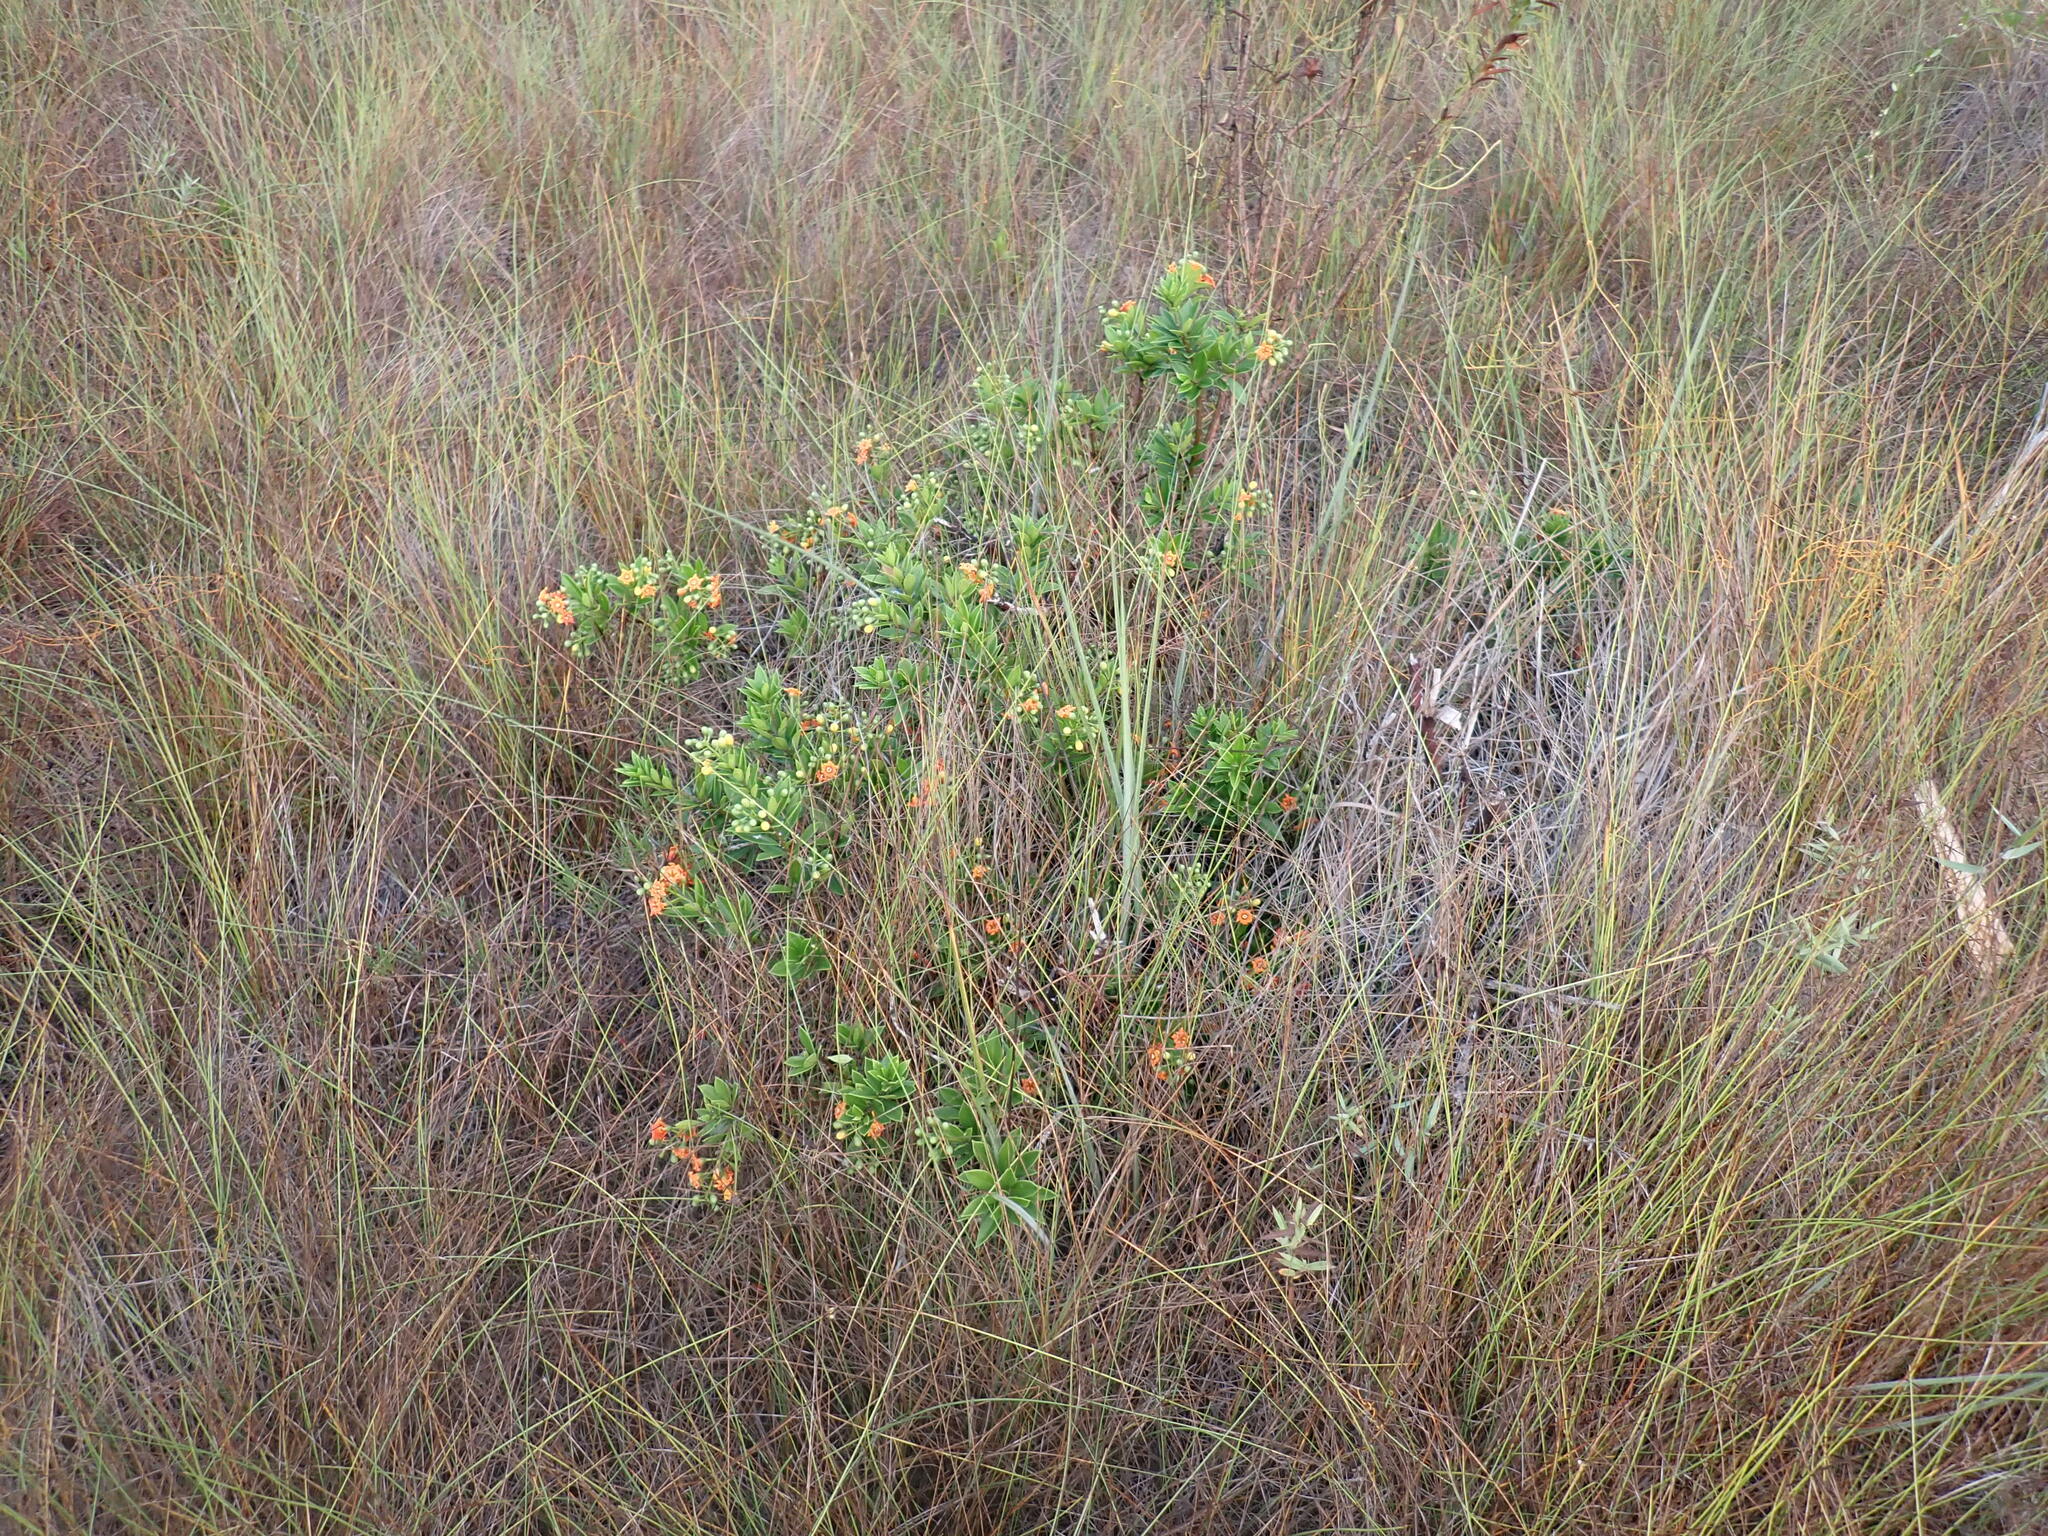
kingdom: Plantae
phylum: Tracheophyta
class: Magnoliopsida
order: Ericales
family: Primulaceae
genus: Bonellia
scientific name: Bonellia macrocarpa
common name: Primrose
